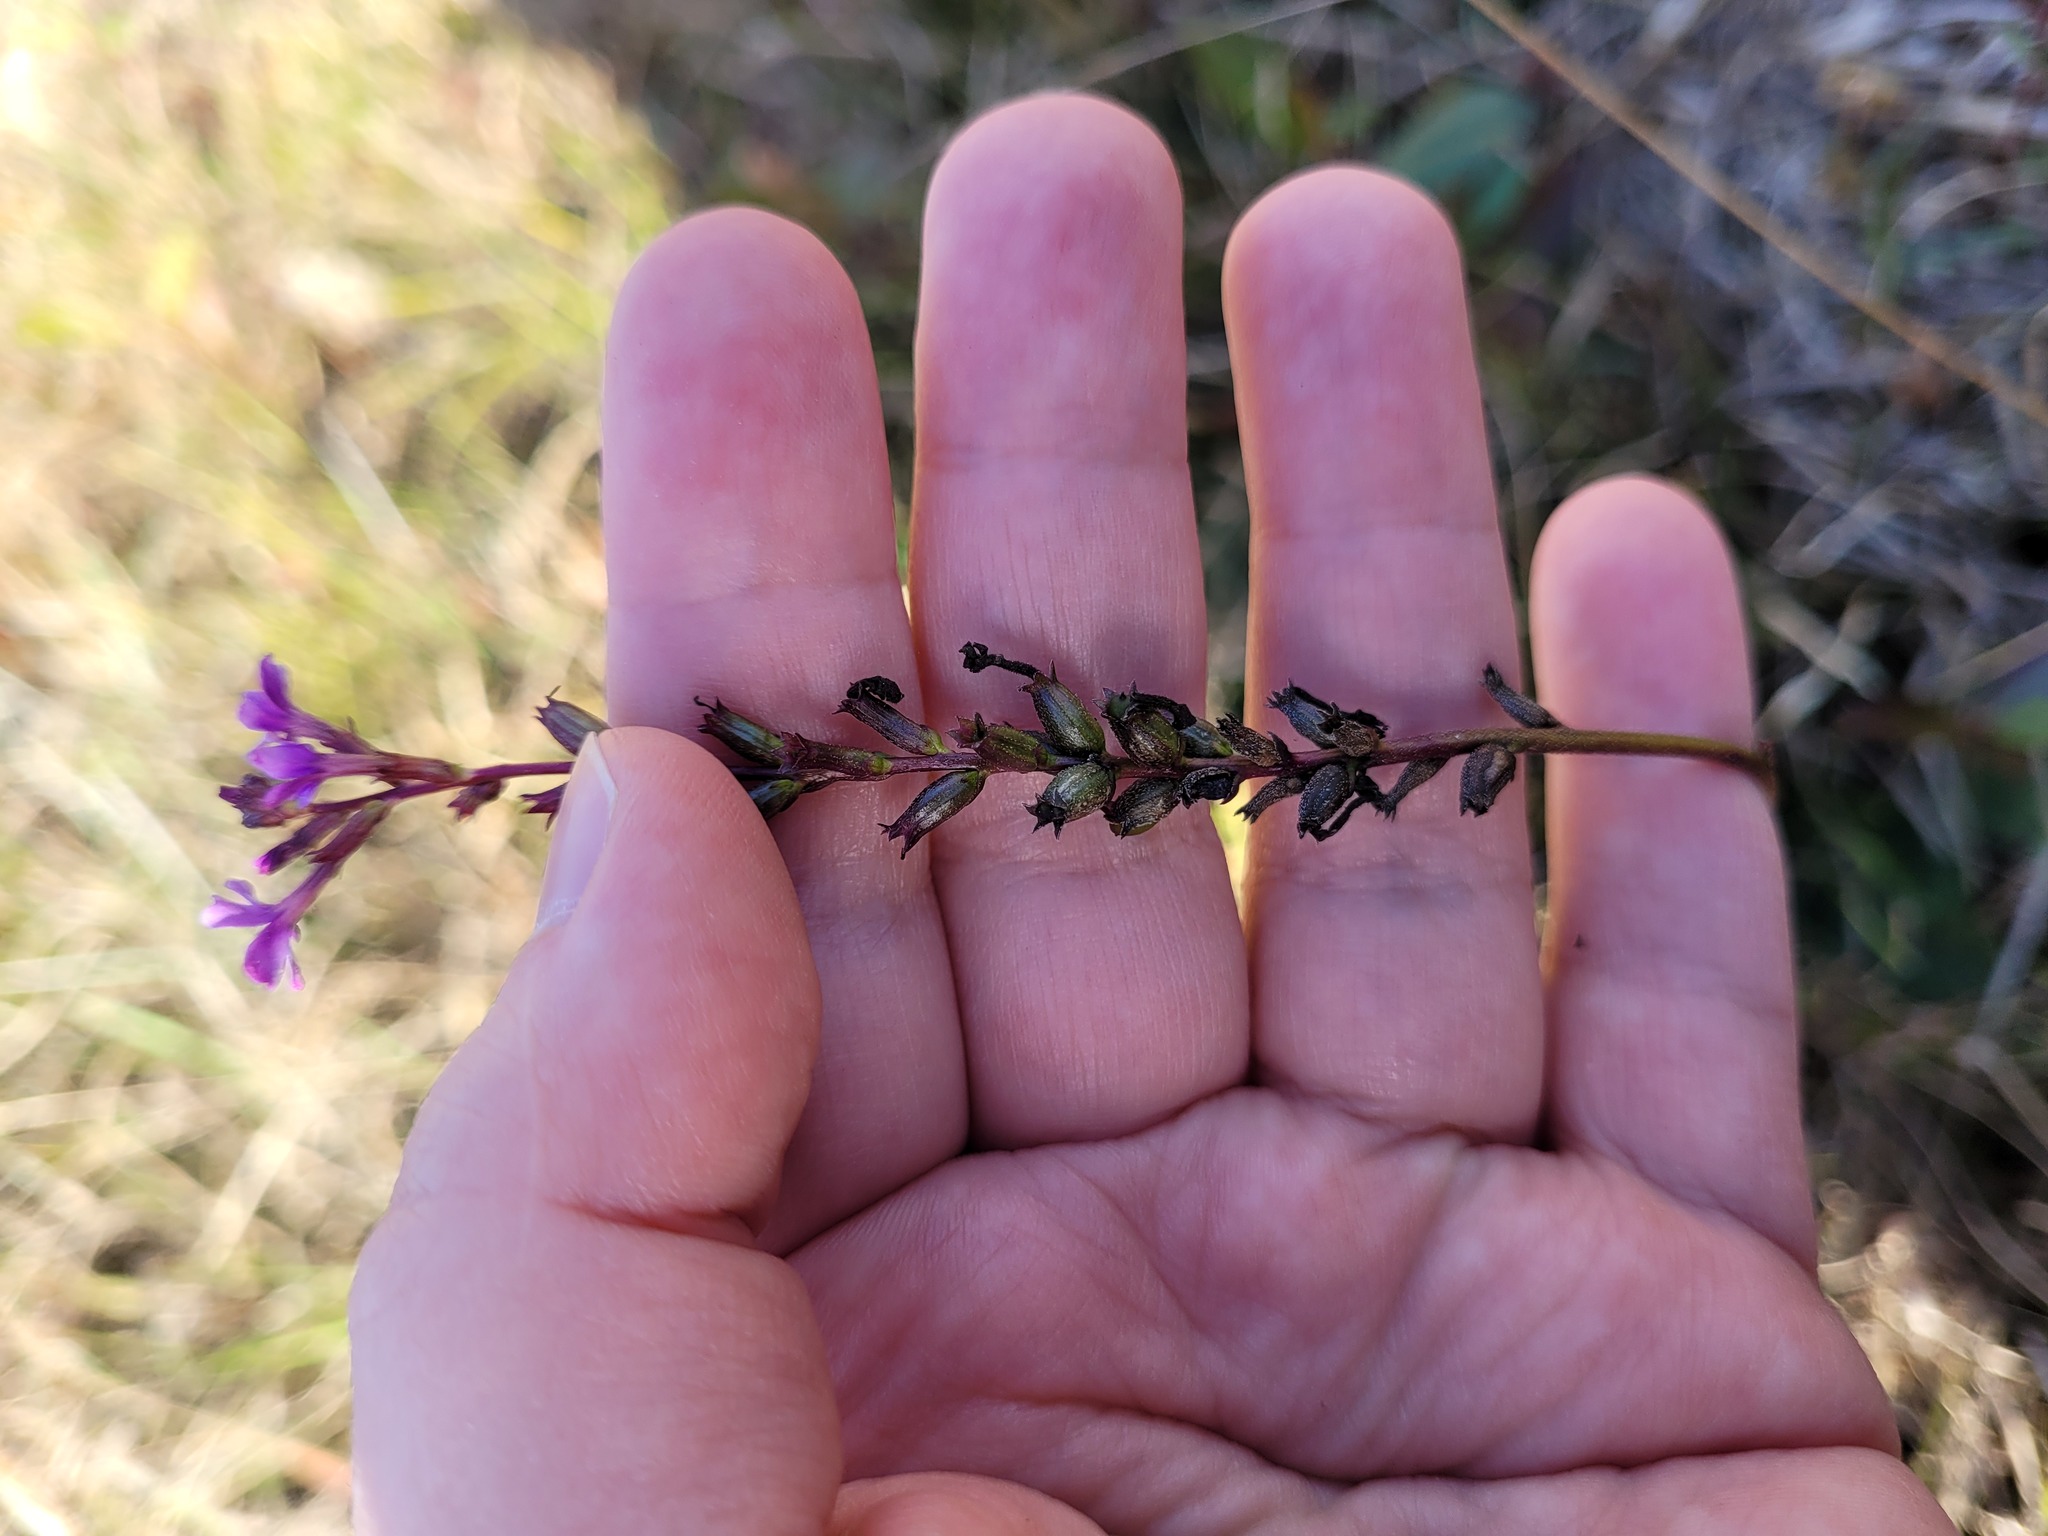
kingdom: Plantae
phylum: Tracheophyta
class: Magnoliopsida
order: Lamiales
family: Orobanchaceae
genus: Buchnera
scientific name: Buchnera floridana
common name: Florida bluehearts
